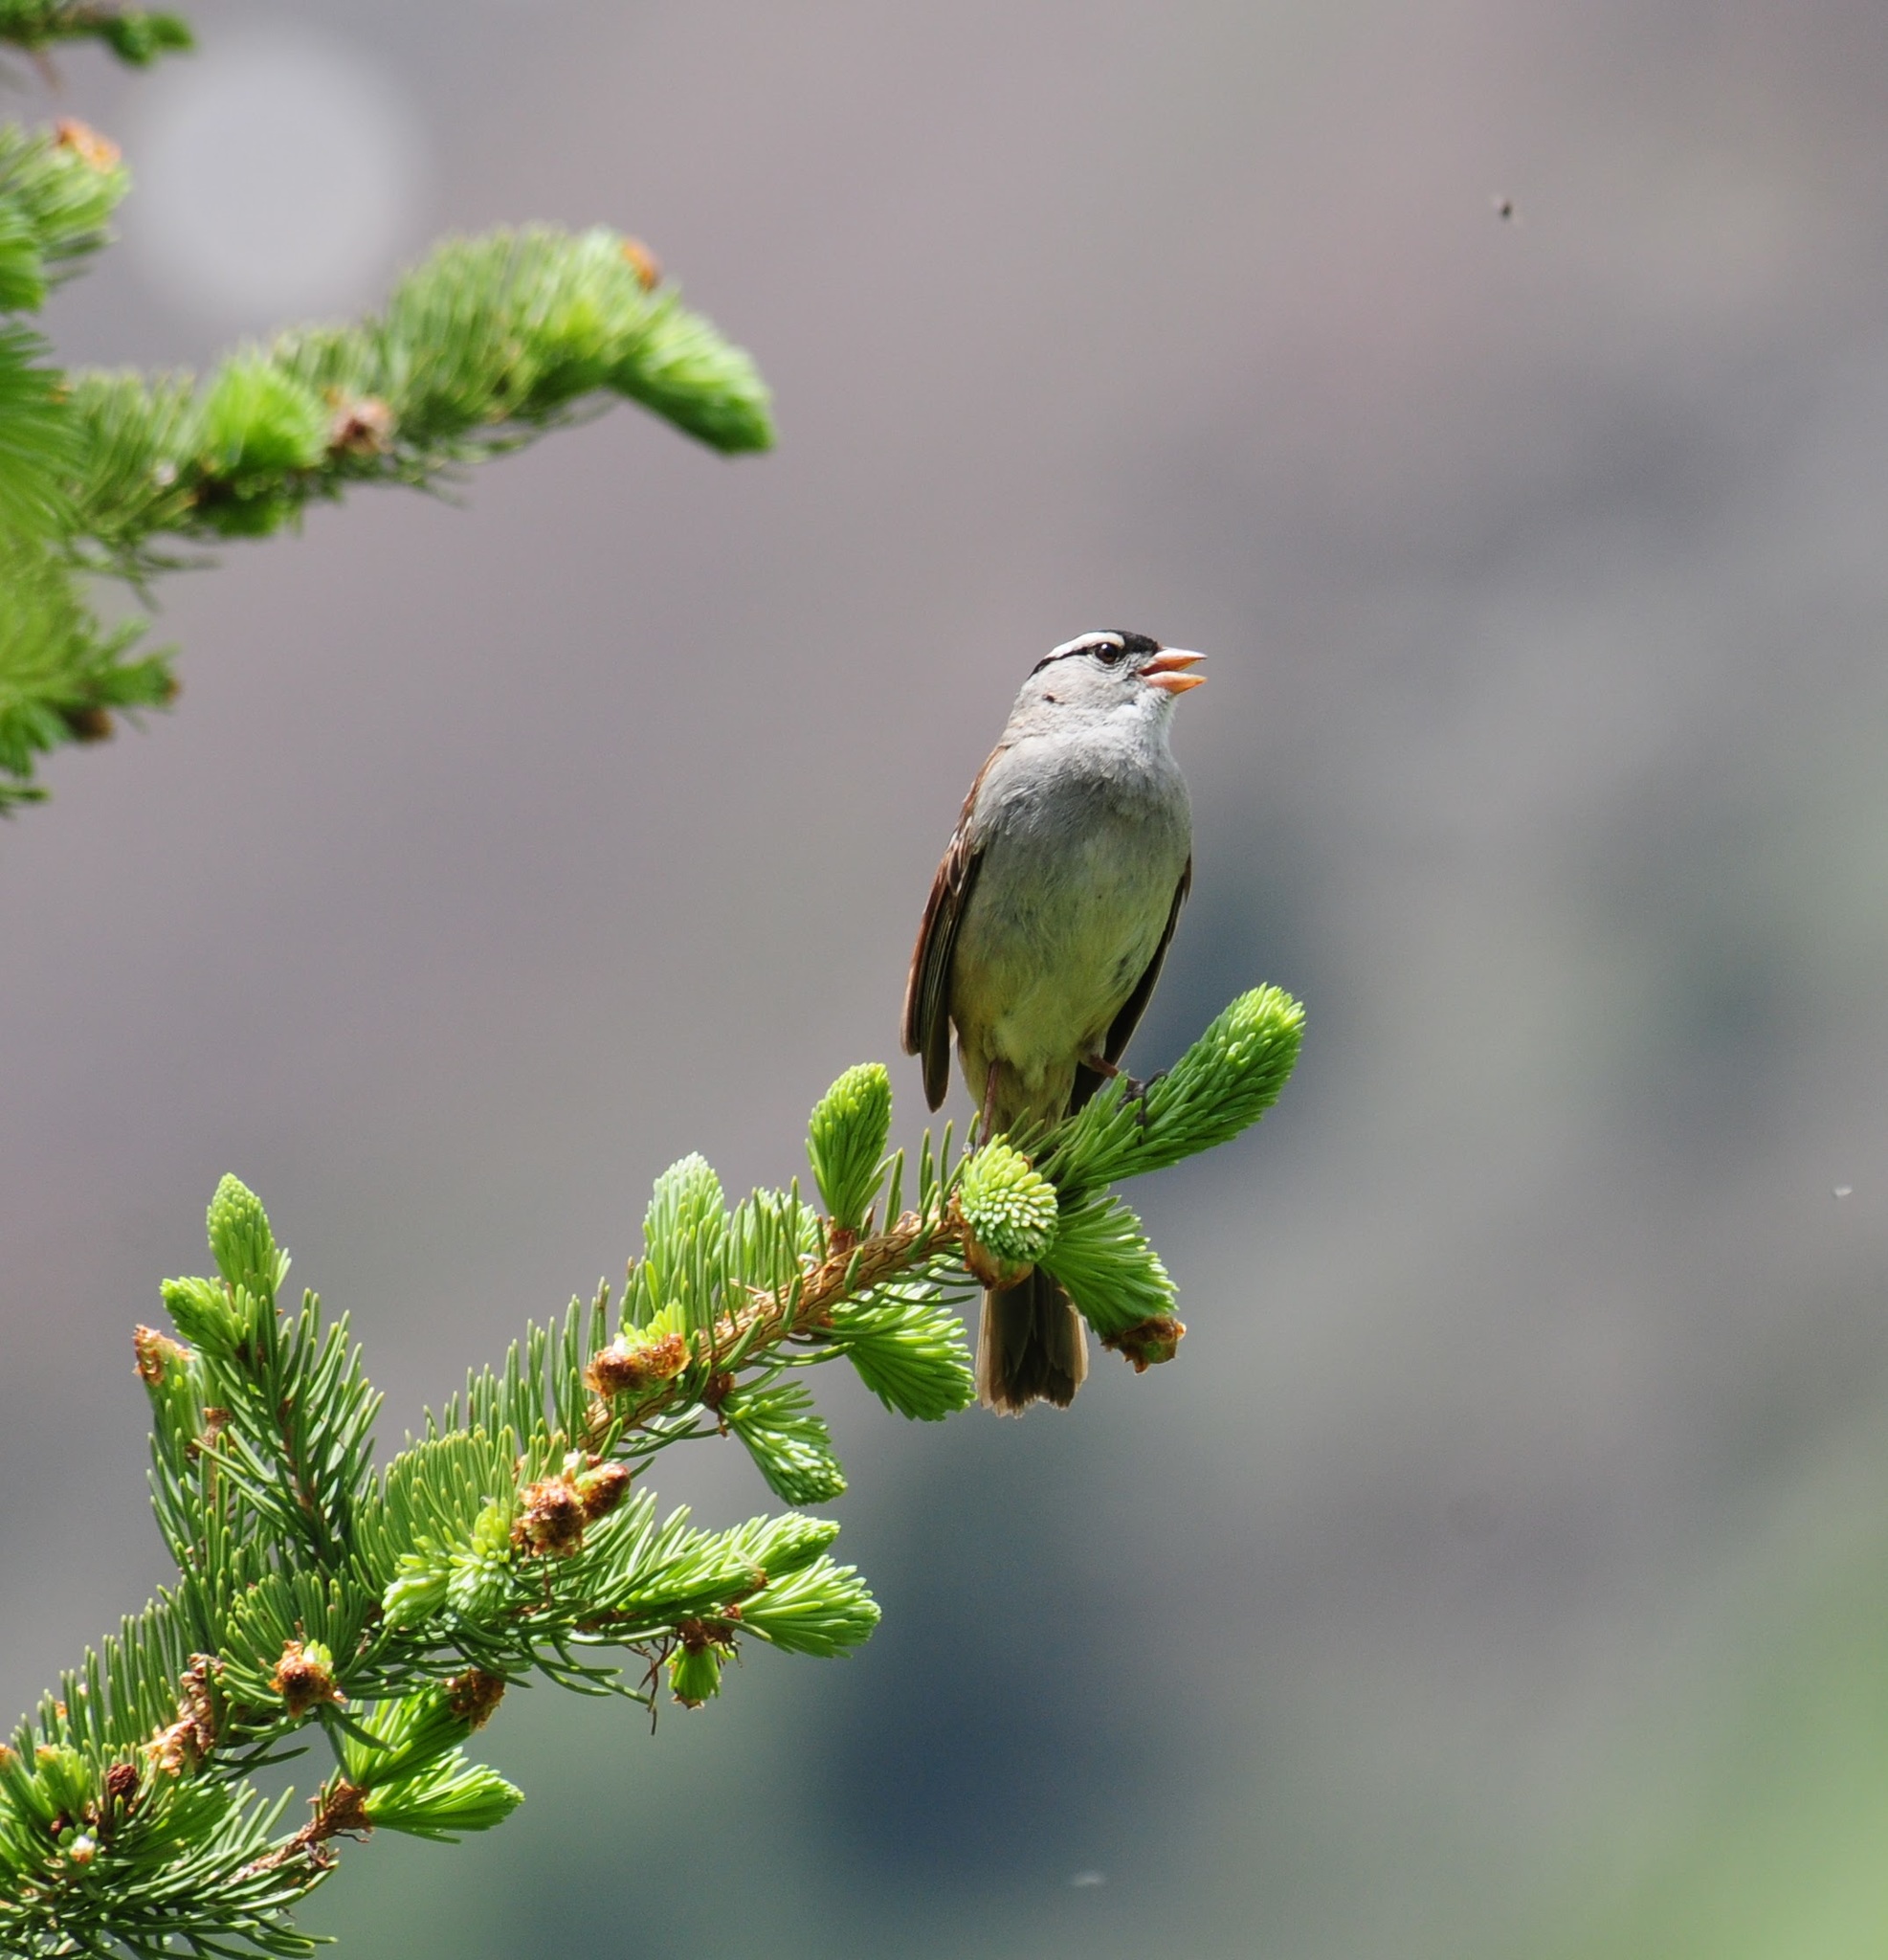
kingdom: Animalia
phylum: Chordata
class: Aves
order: Passeriformes
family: Passerellidae
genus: Zonotrichia
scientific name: Zonotrichia leucophrys
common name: White-crowned sparrow
